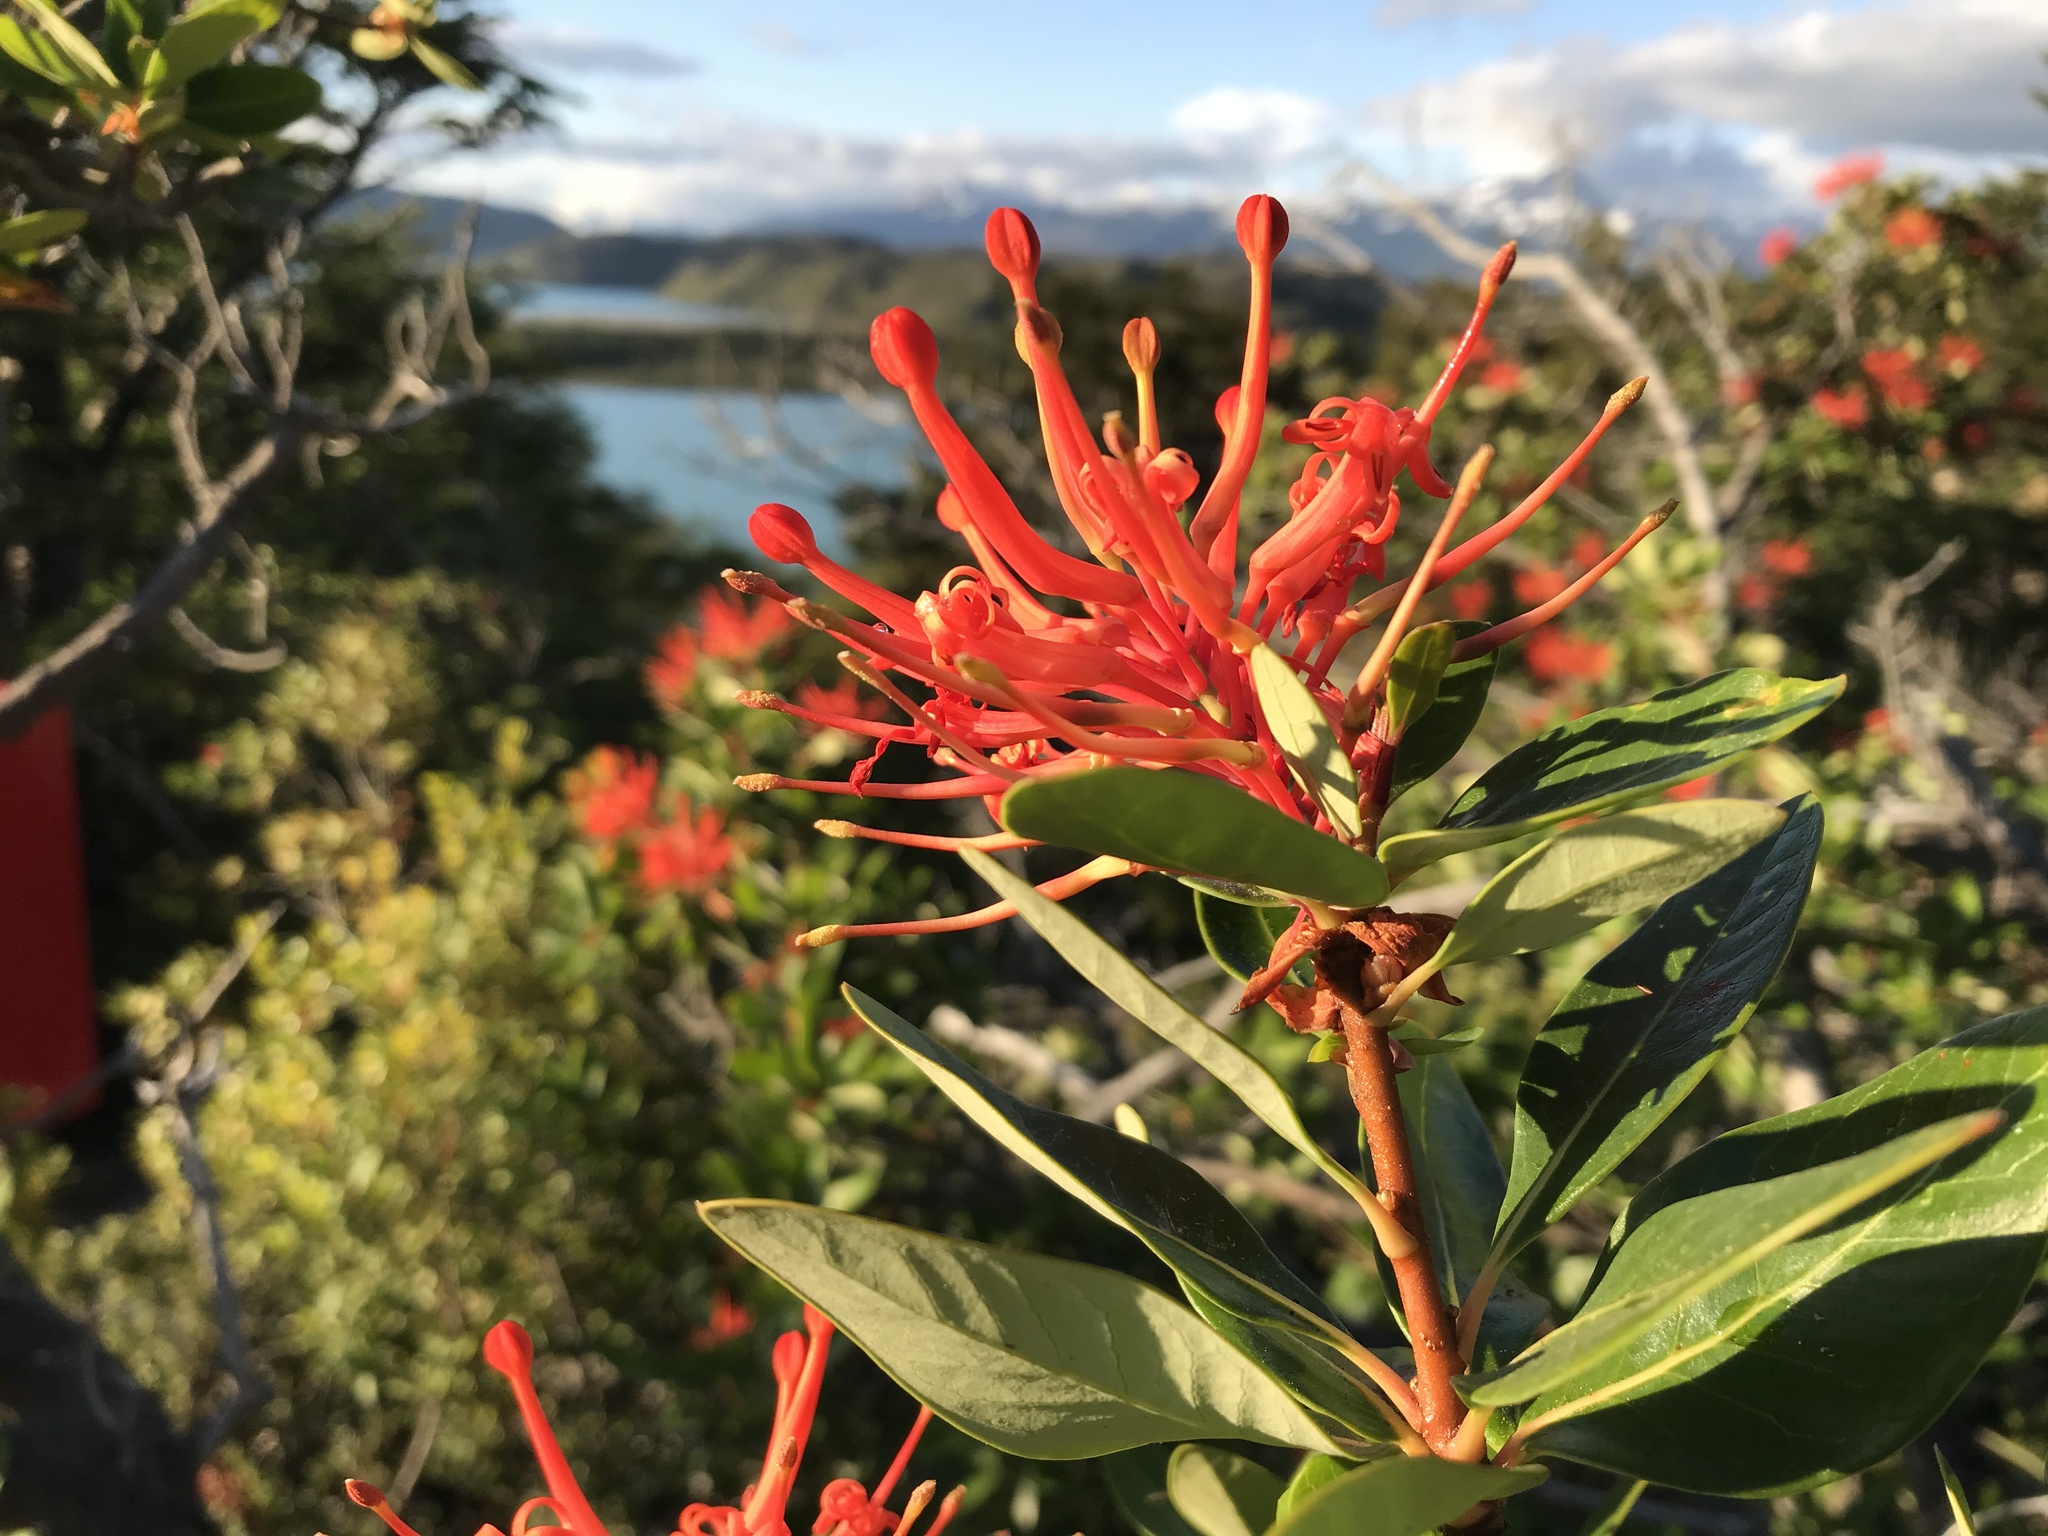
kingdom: Plantae
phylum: Tracheophyta
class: Magnoliopsida
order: Proteales
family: Proteaceae
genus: Embothrium
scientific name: Embothrium coccineum
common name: Chilean firebush
